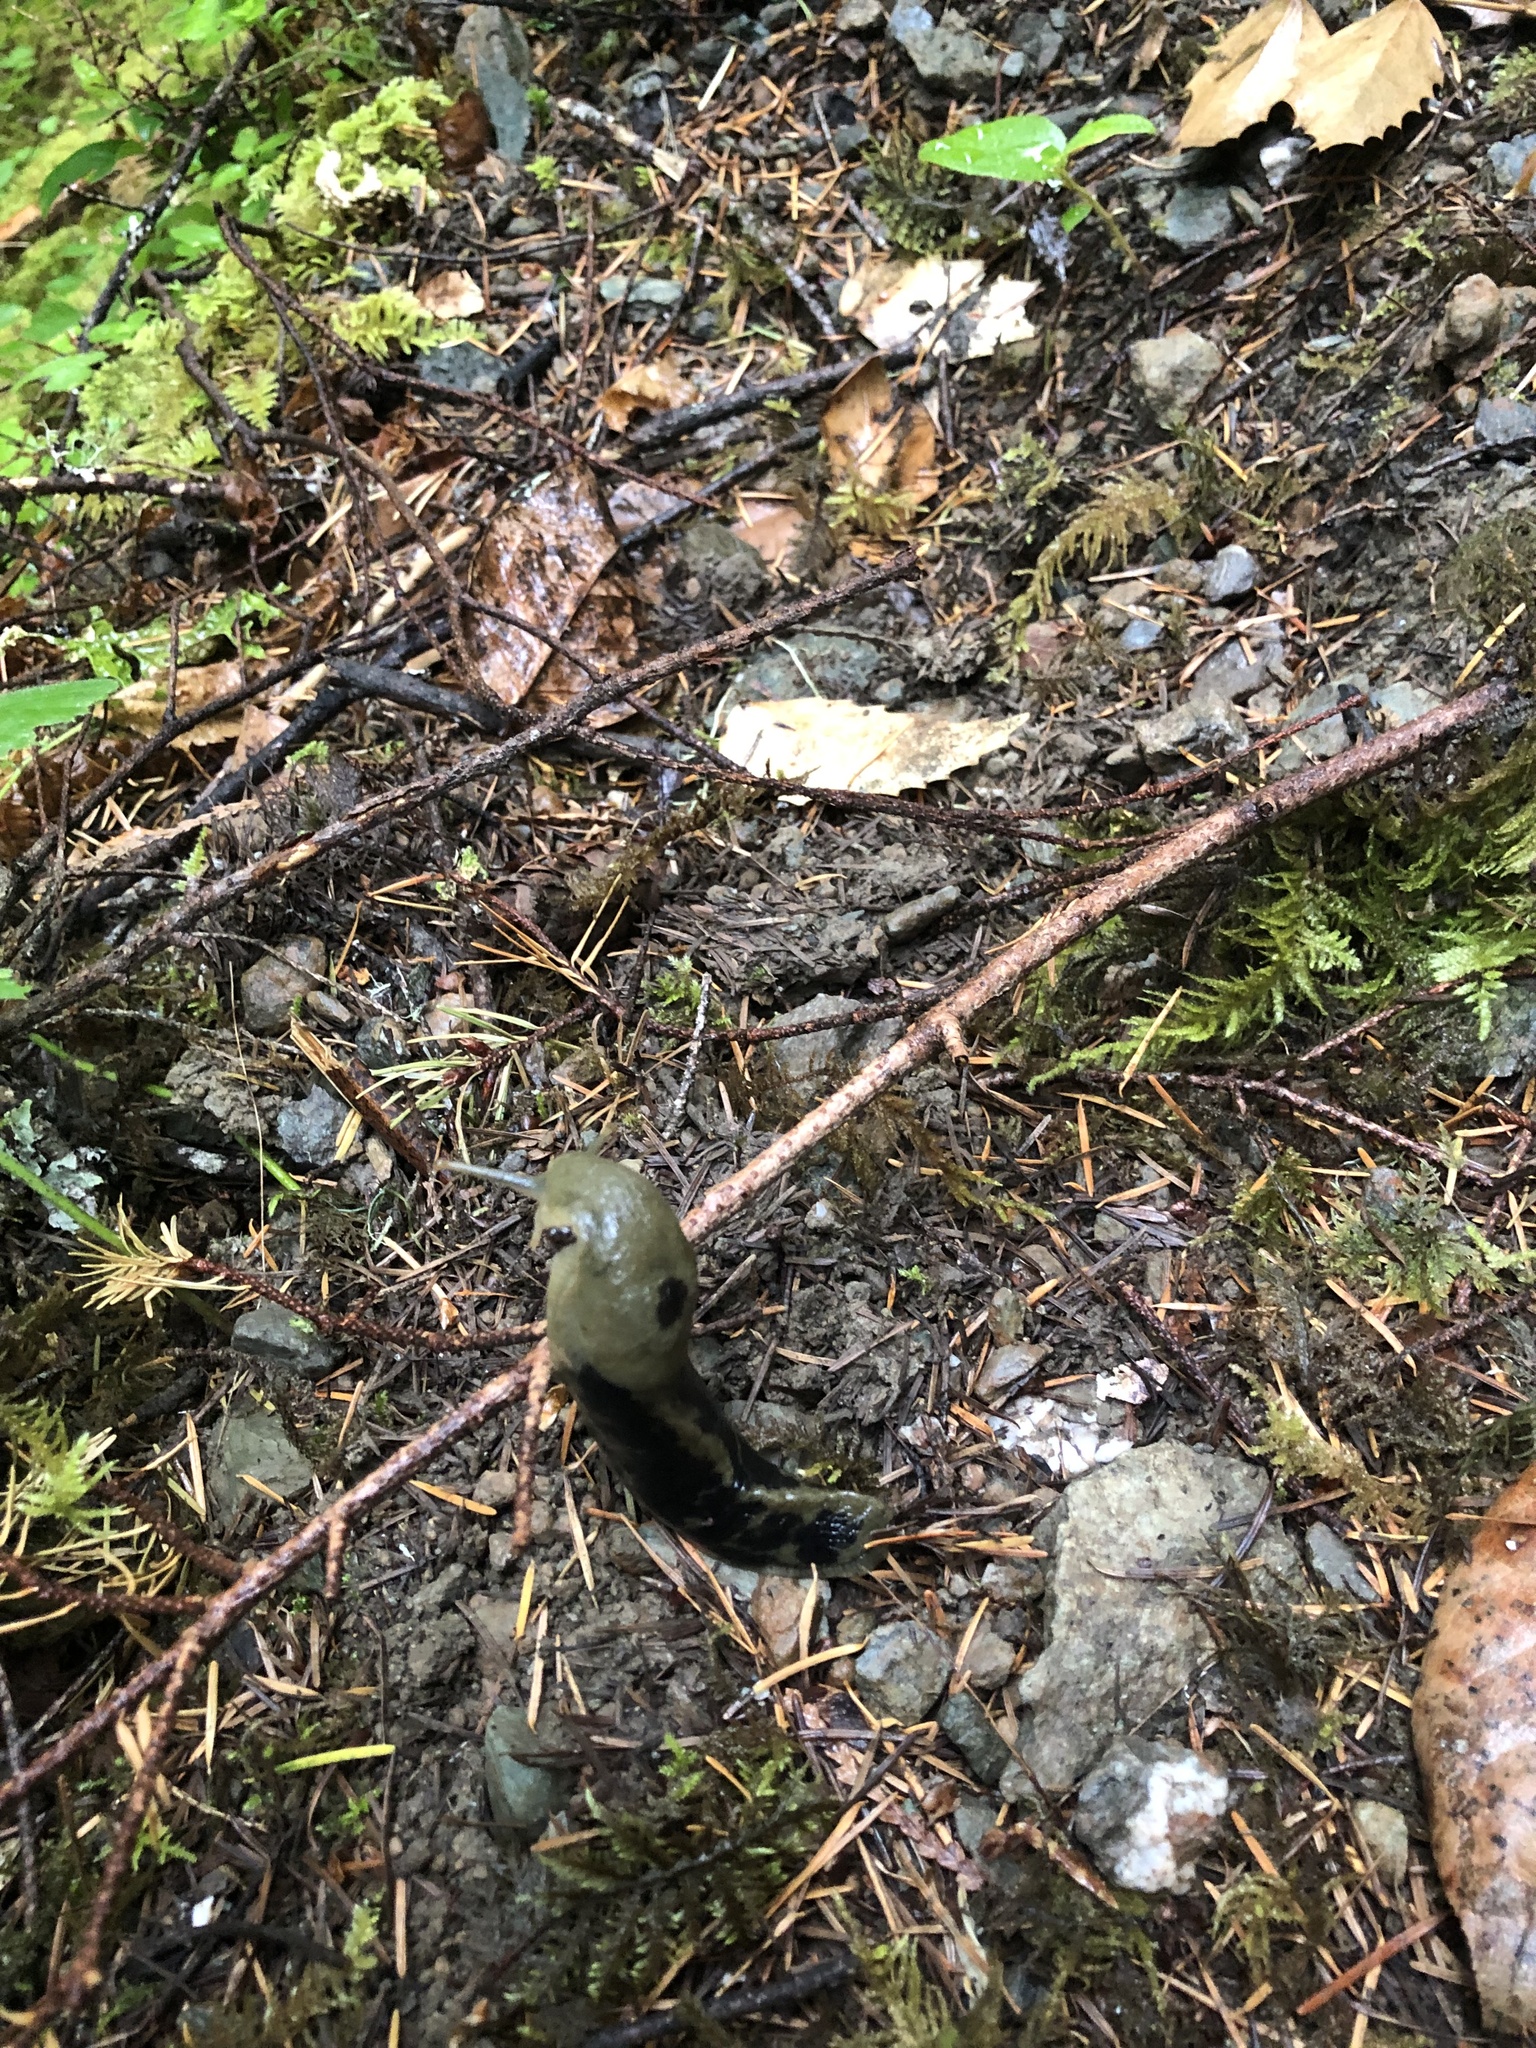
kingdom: Animalia
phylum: Mollusca
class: Gastropoda
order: Stylommatophora
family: Ariolimacidae
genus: Ariolimax
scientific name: Ariolimax columbianus
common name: Pacific banana slug
